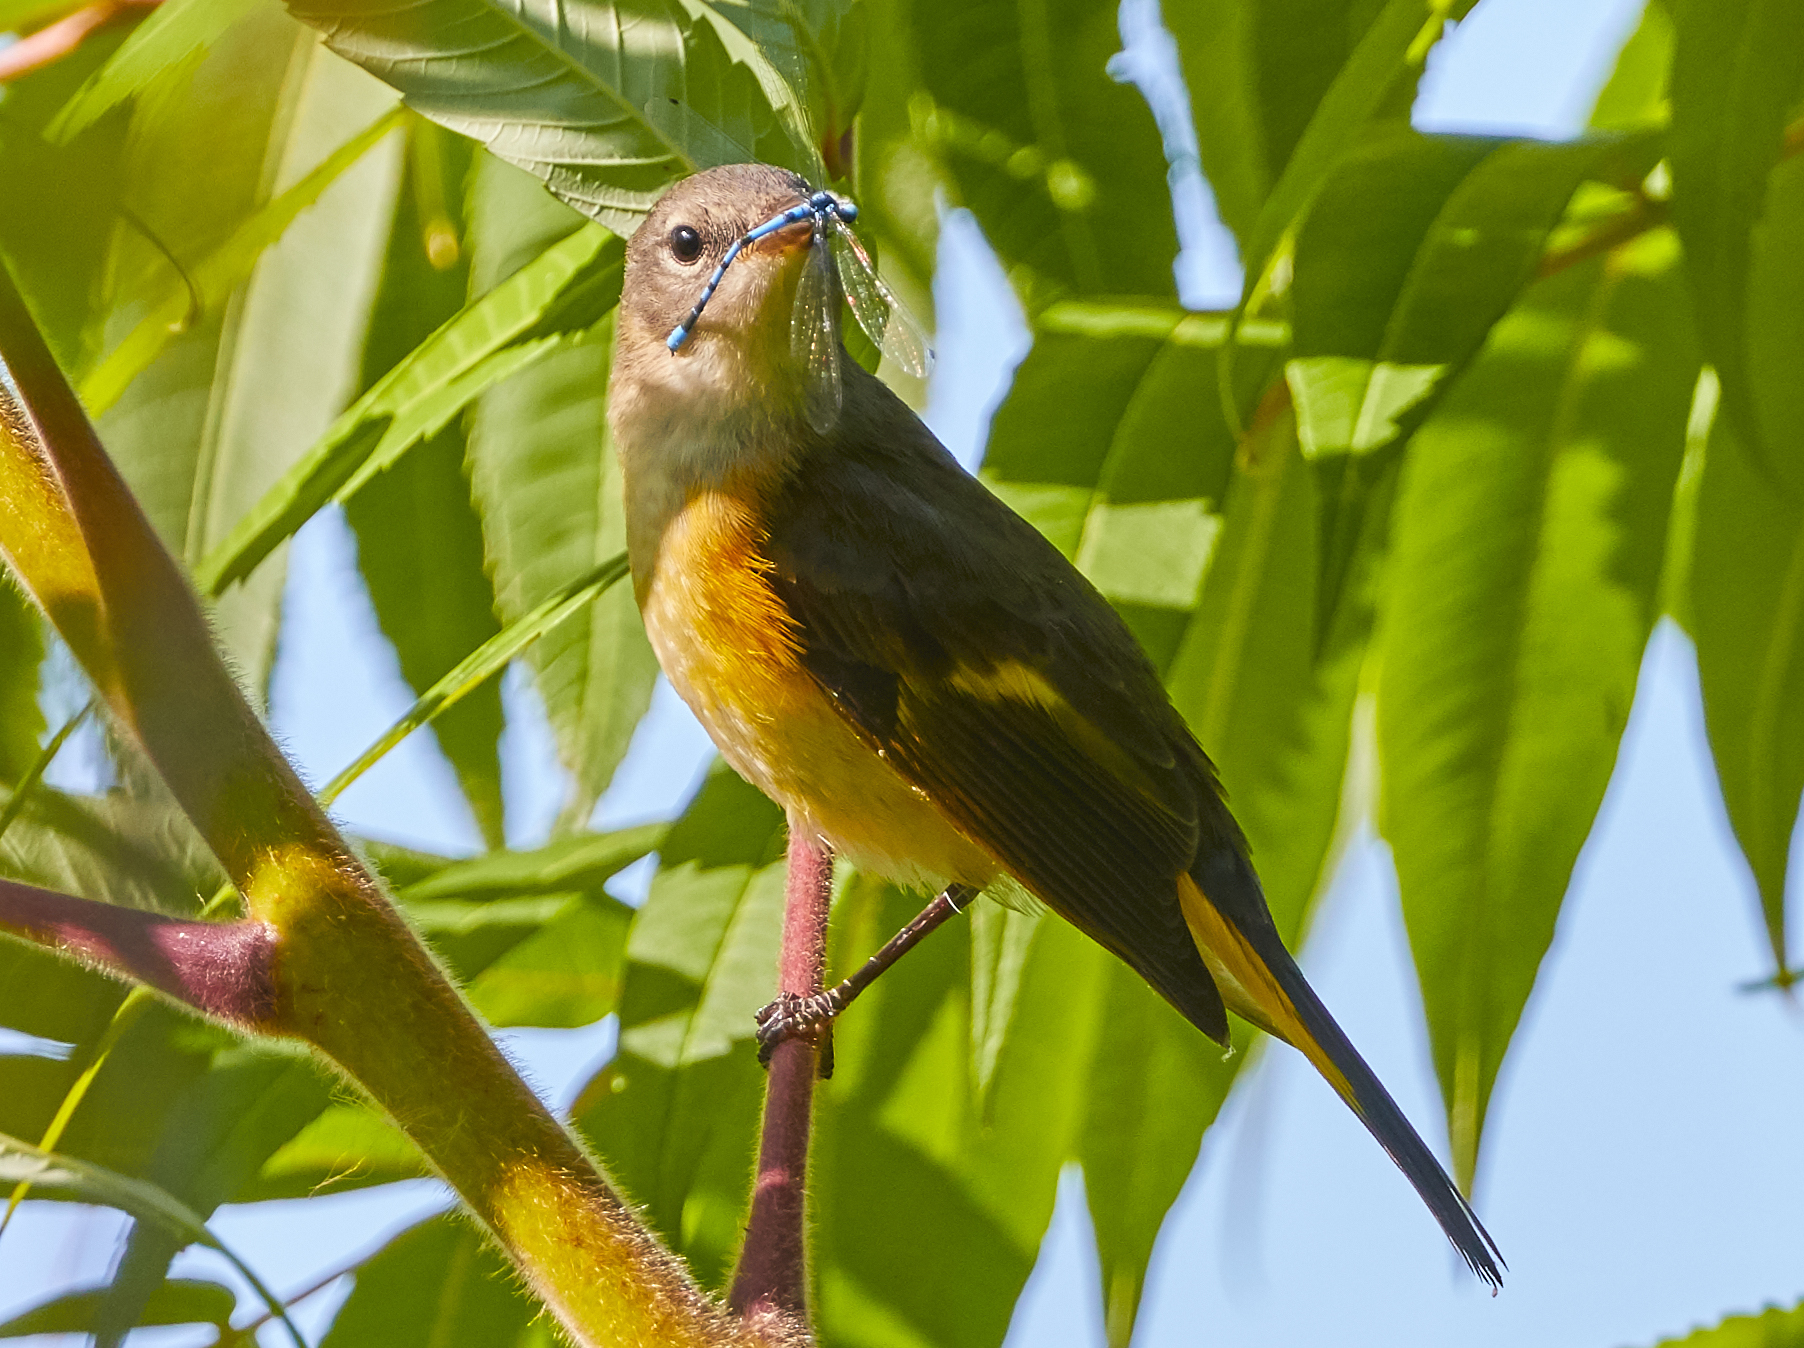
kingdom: Animalia
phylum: Chordata
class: Aves
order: Passeriformes
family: Parulidae
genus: Setophaga
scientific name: Setophaga ruticilla
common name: American redstart
